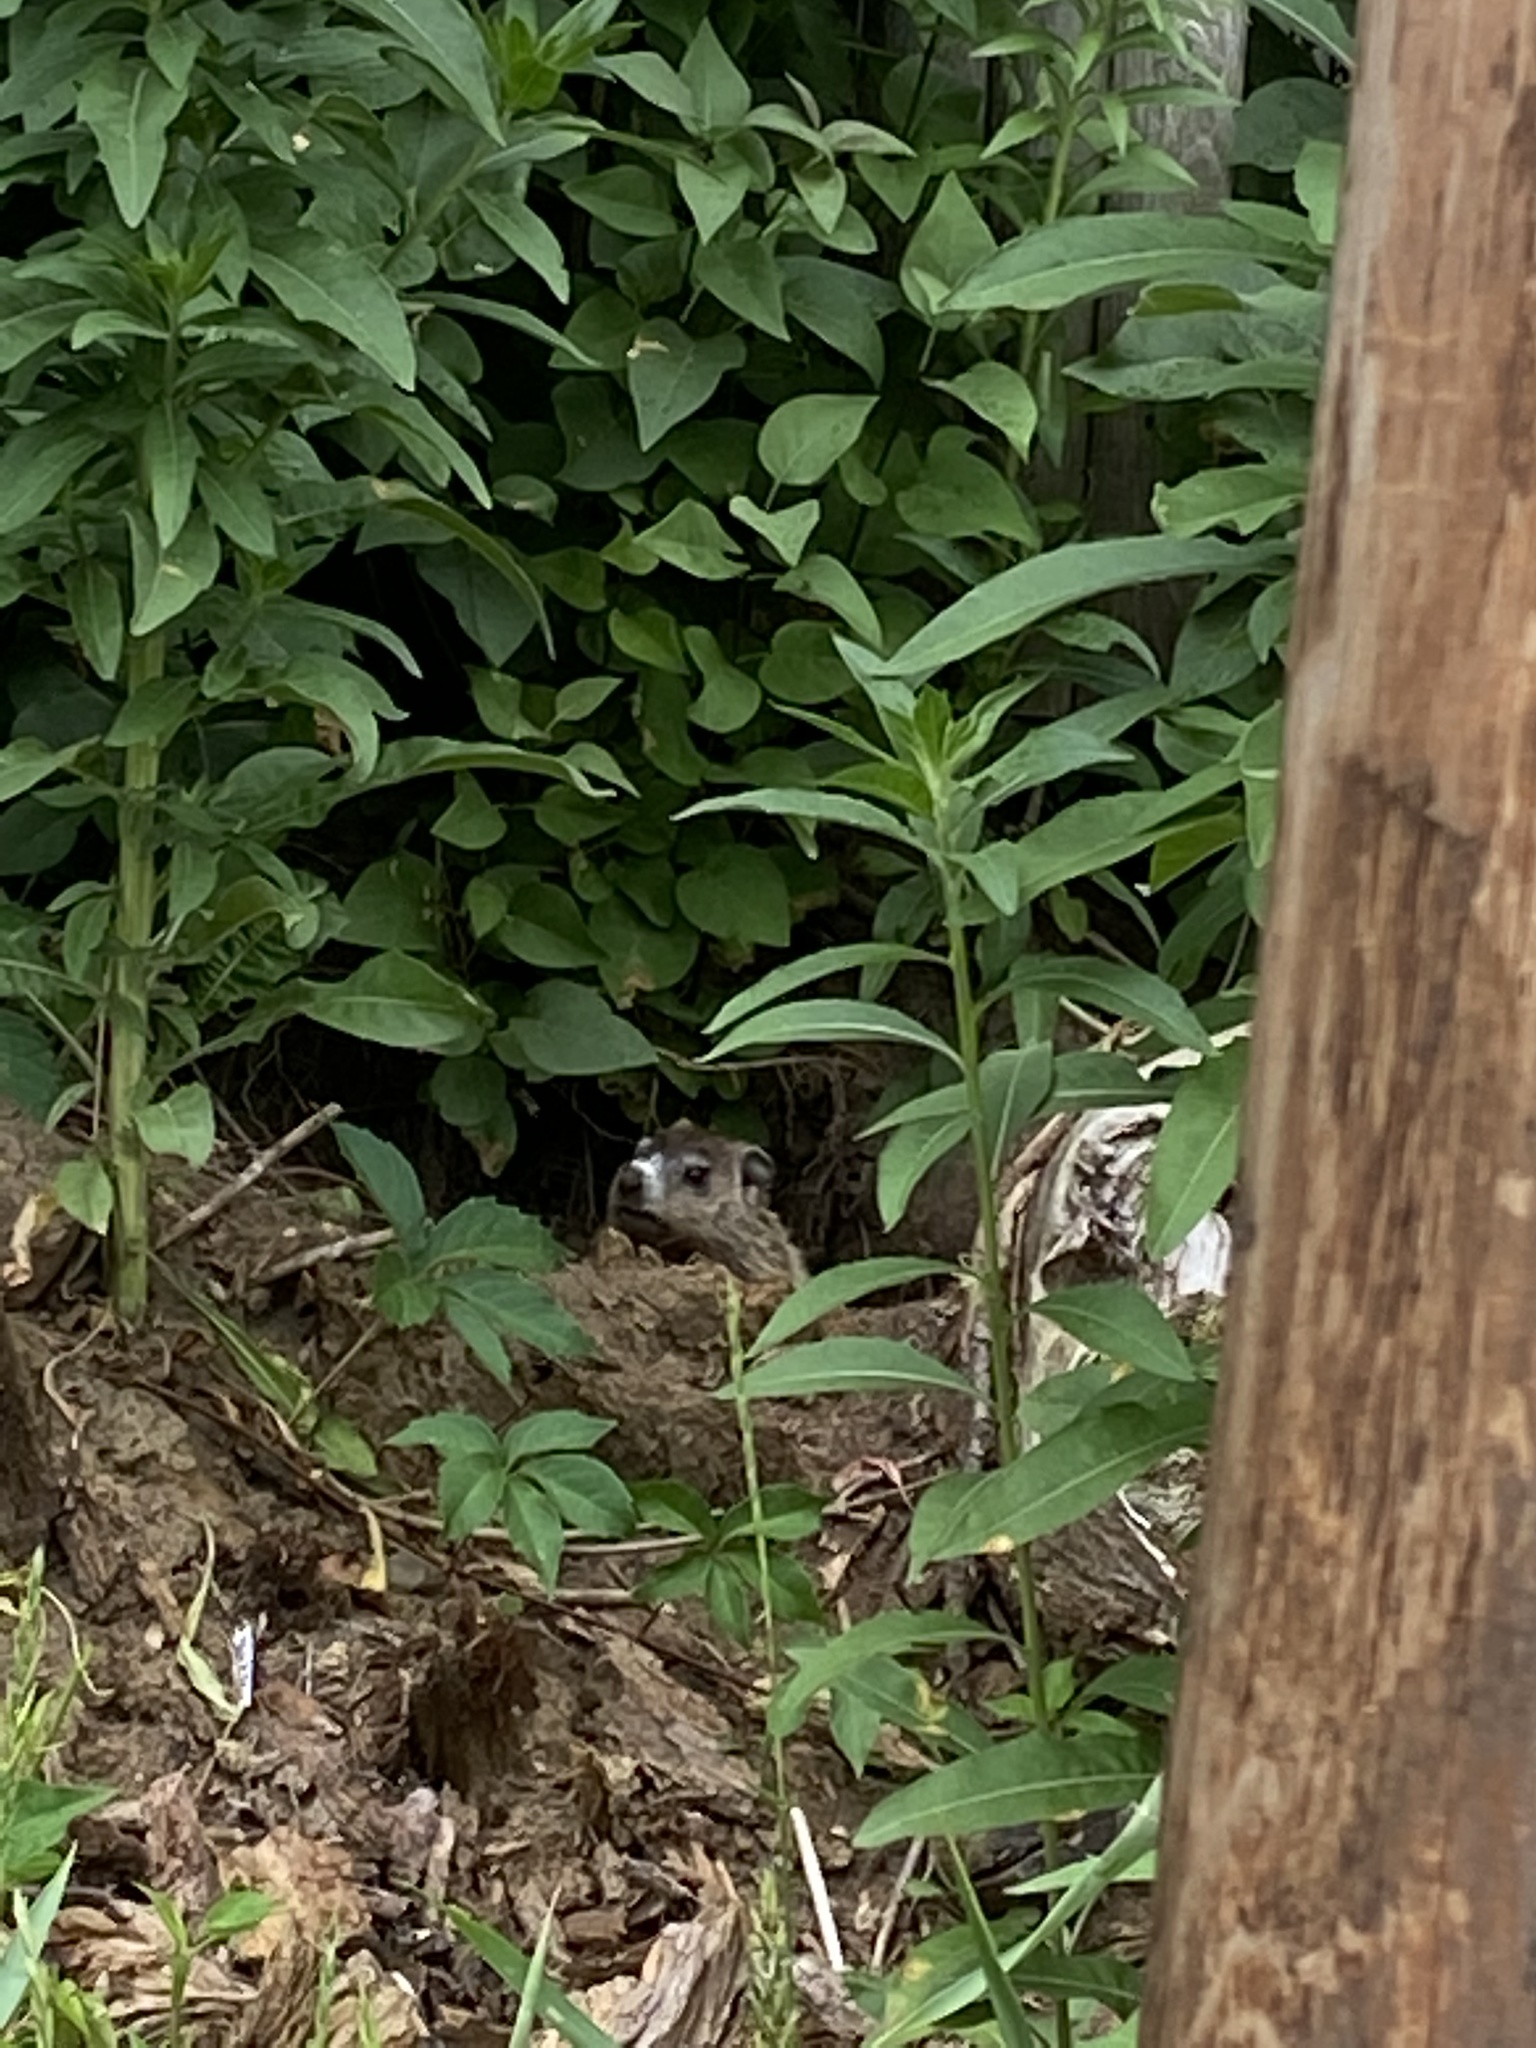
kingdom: Animalia
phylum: Chordata
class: Mammalia
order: Rodentia
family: Sciuridae
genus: Marmota
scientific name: Marmota monax
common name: Groundhog
